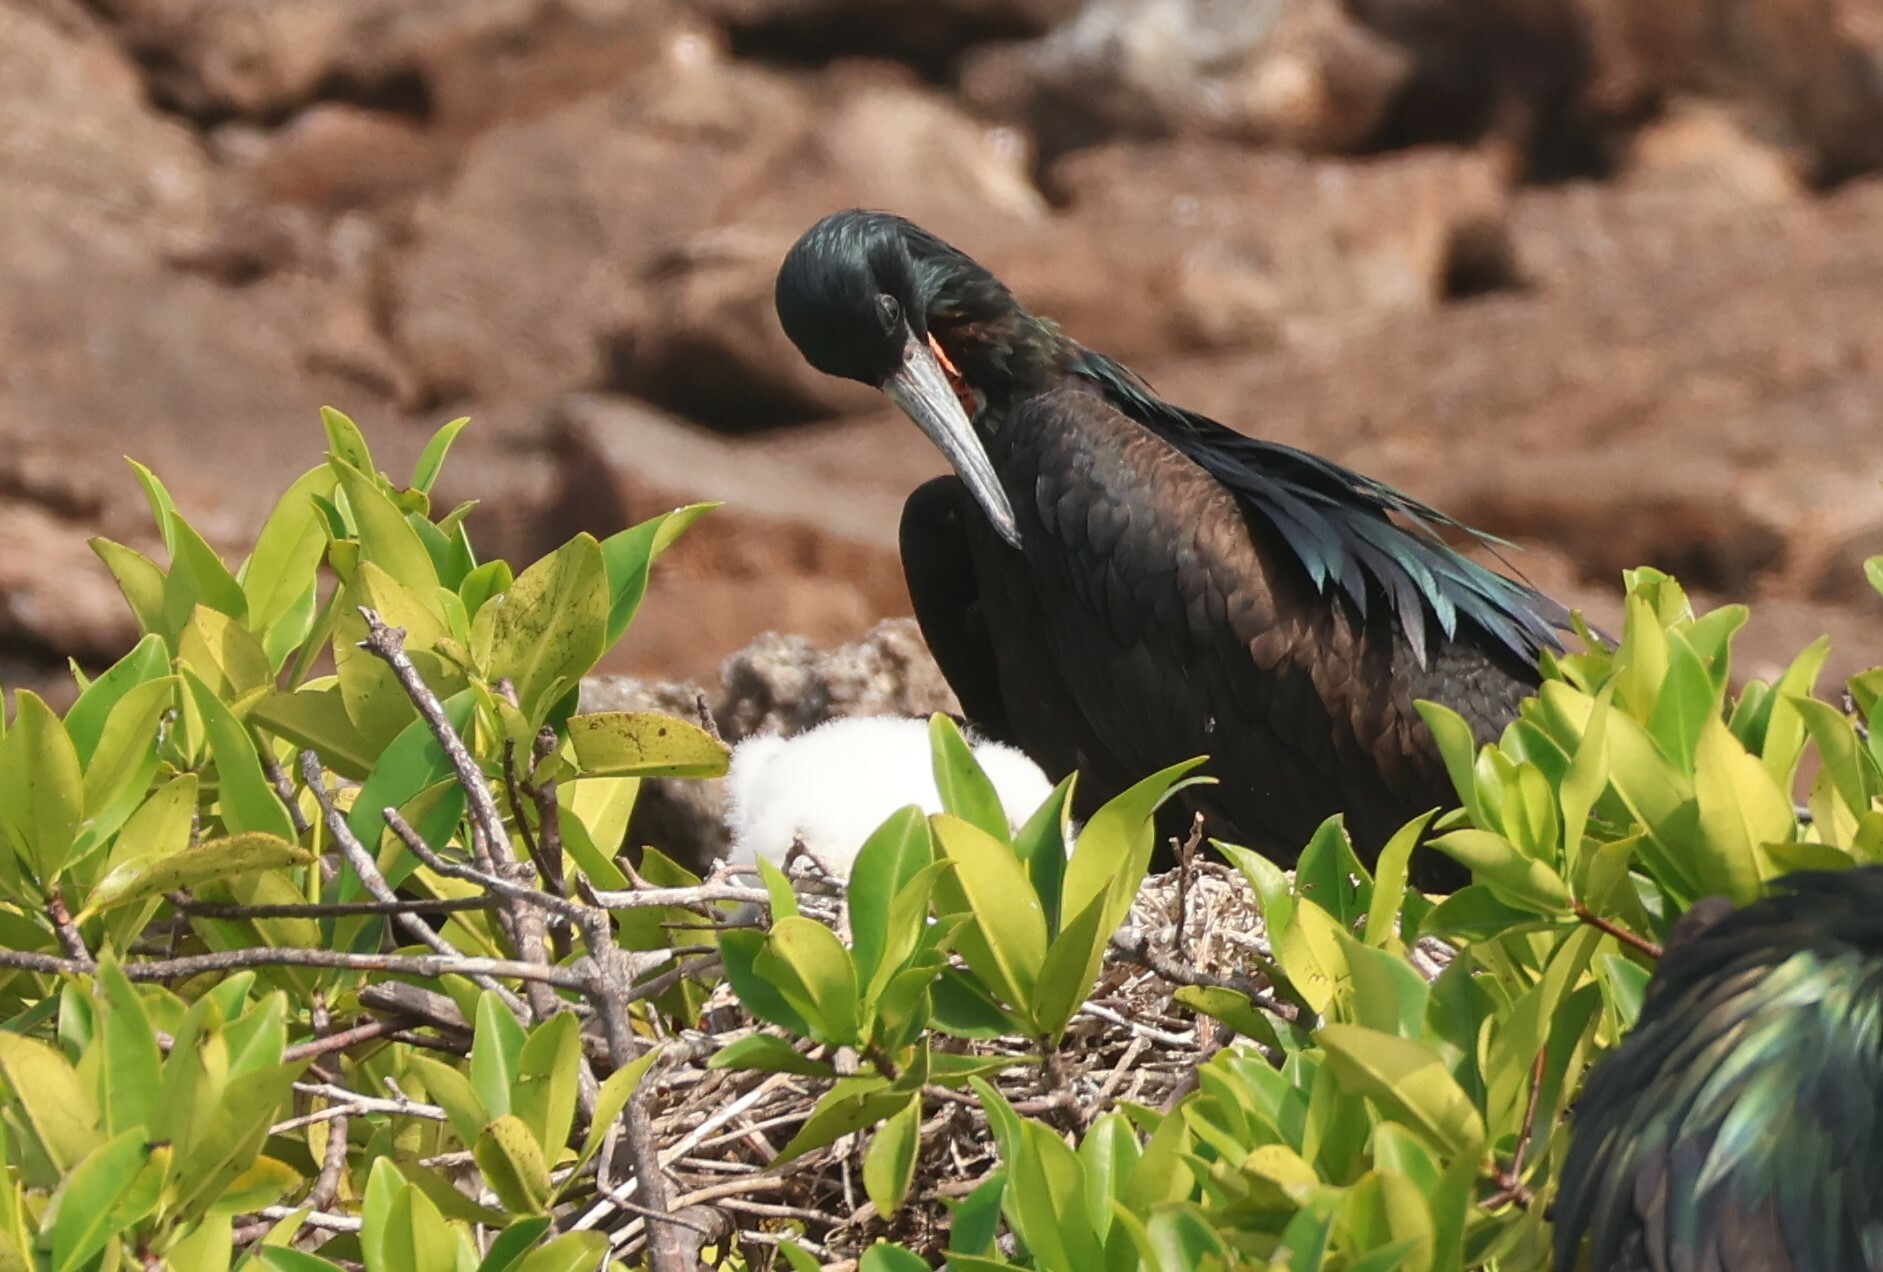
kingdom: Animalia
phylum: Chordata
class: Aves
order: Suliformes
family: Fregatidae
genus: Fregata
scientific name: Fregata minor
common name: Great frigatebird
